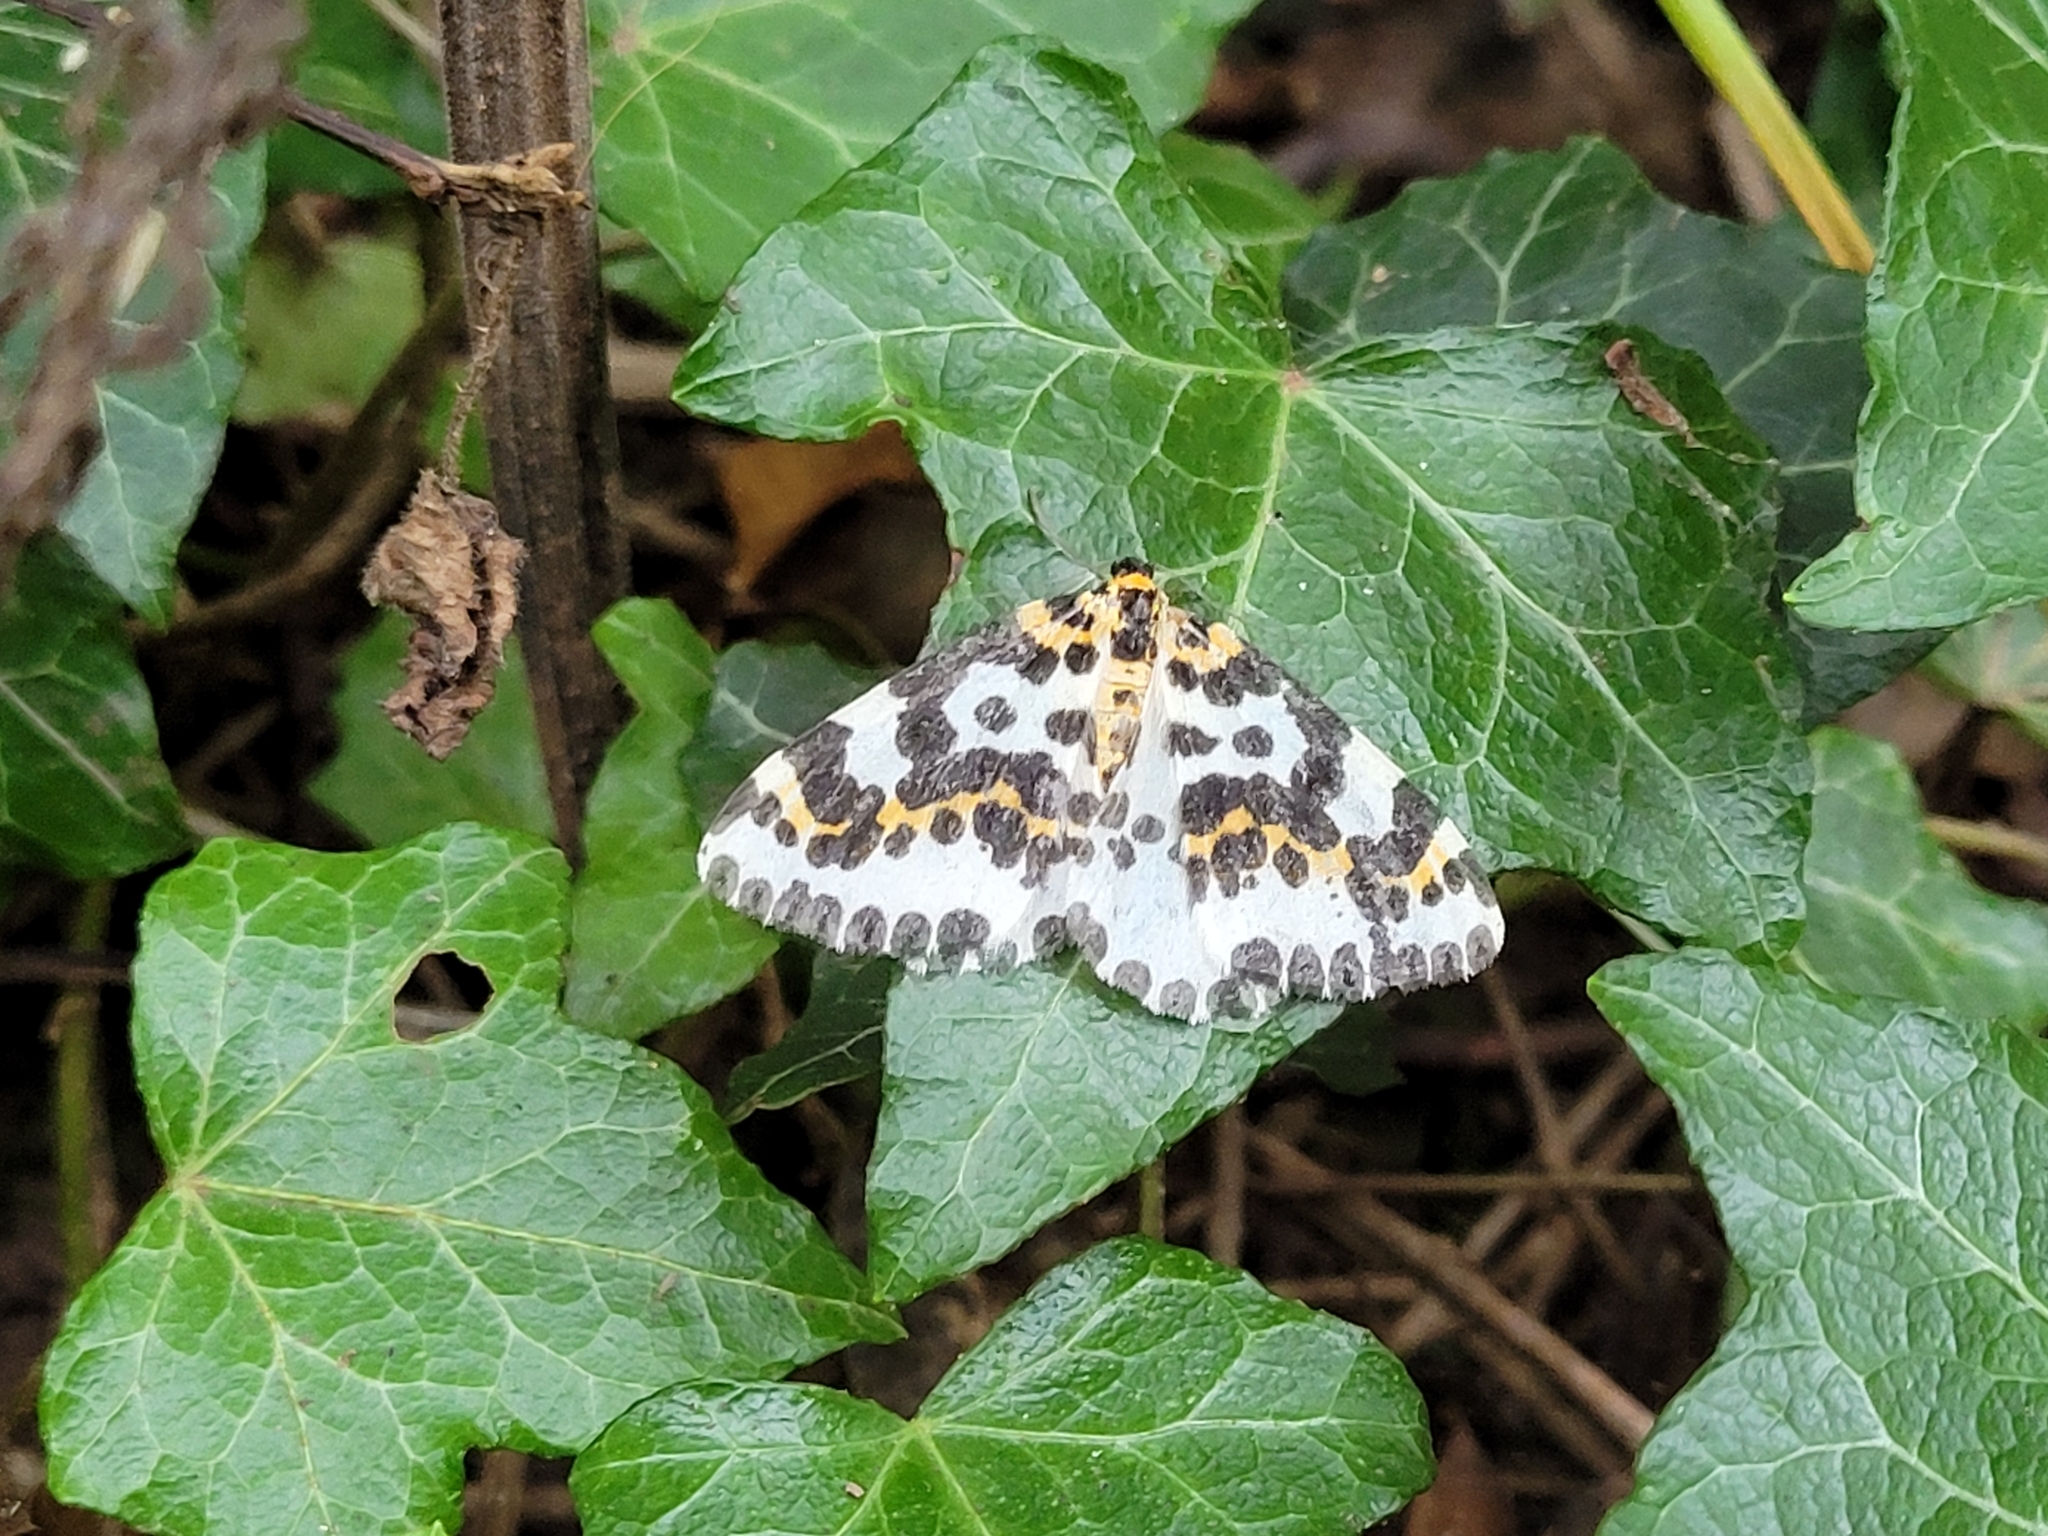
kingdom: Animalia
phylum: Arthropoda
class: Insecta
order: Lepidoptera
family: Geometridae
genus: Abraxas
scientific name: Abraxas grossulariata
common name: Magpie
